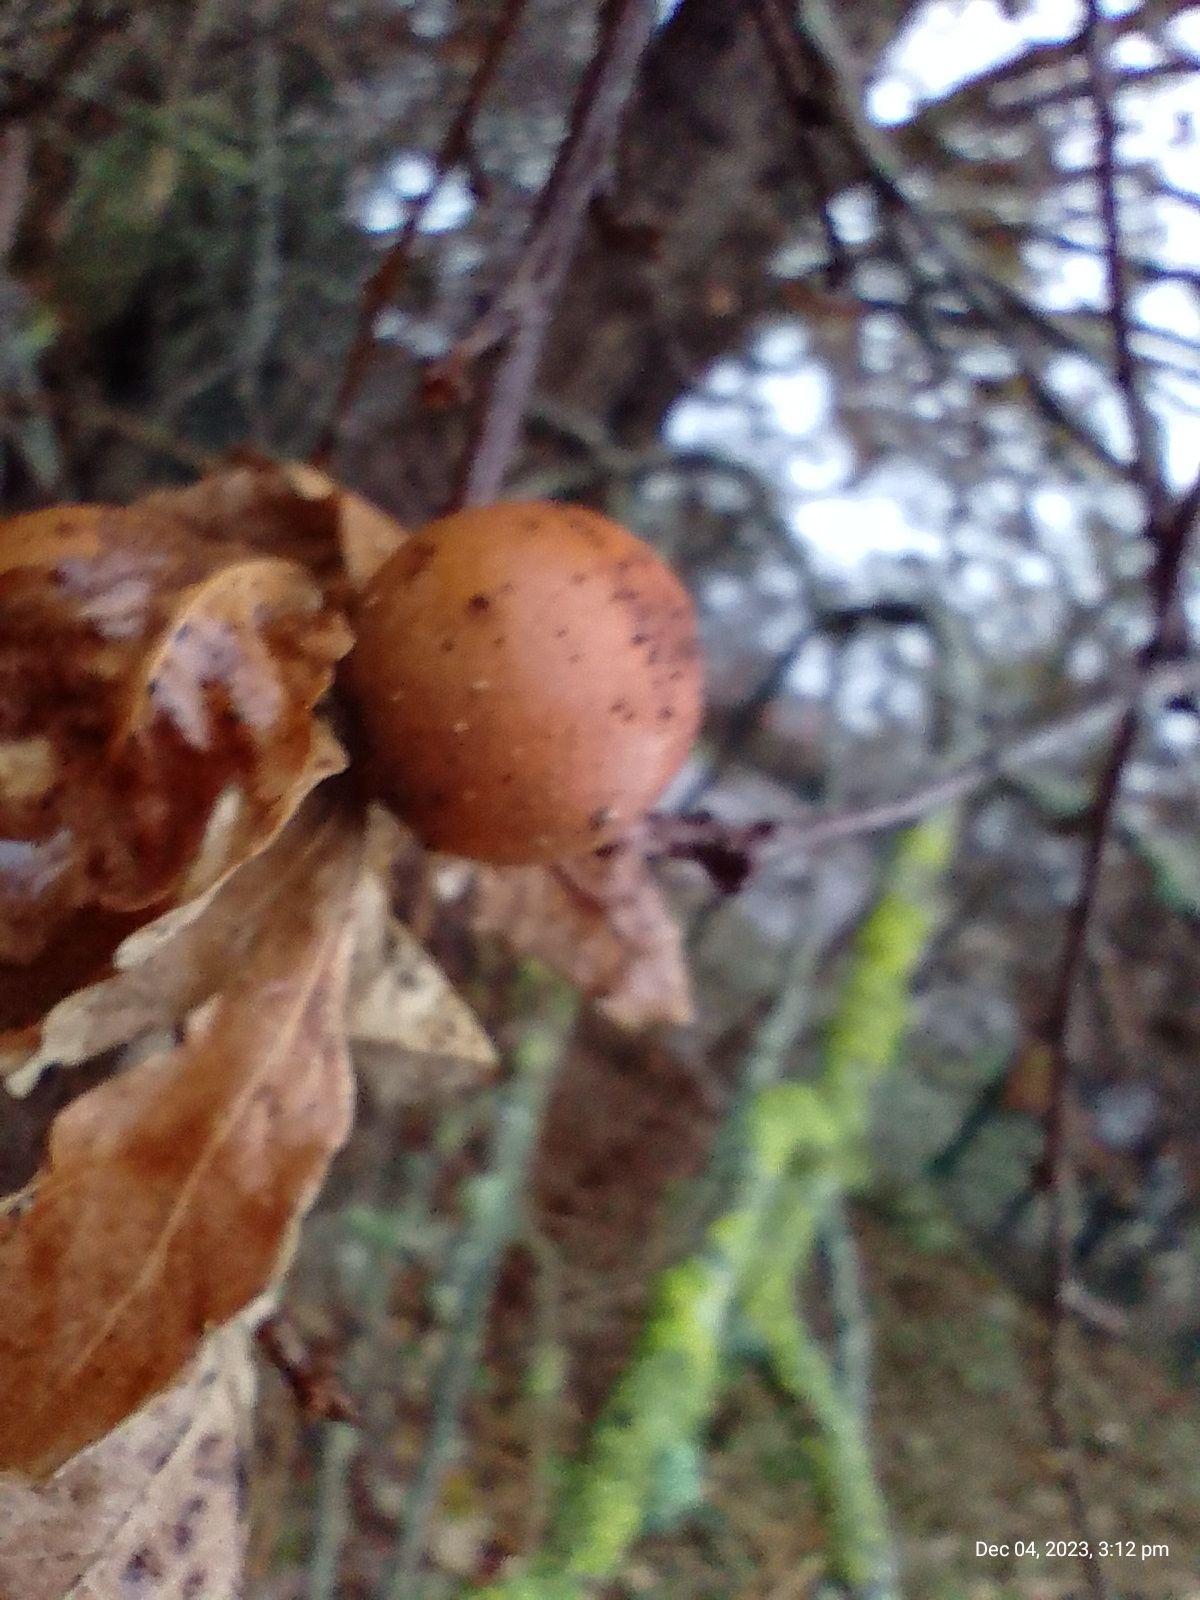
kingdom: Animalia
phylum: Arthropoda
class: Insecta
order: Hymenoptera
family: Cynipidae
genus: Andricus
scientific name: Andricus kollari
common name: Marble gall
